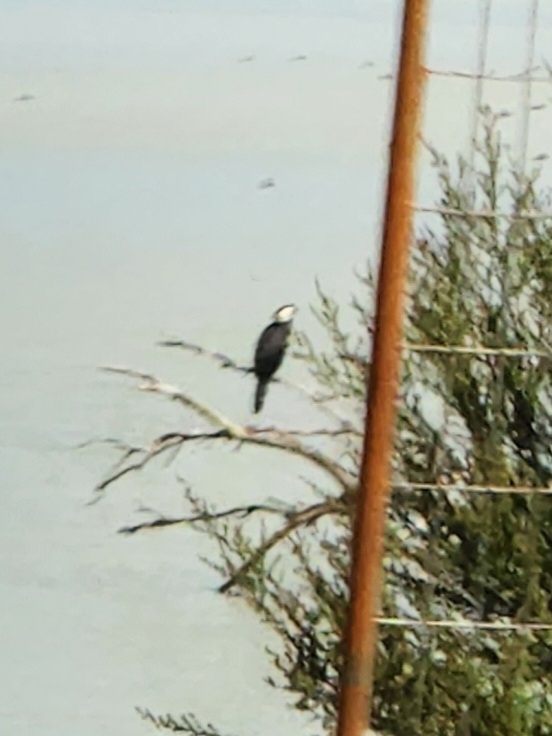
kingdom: Animalia
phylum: Chordata
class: Aves
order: Suliformes
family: Phalacrocoracidae
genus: Microcarbo
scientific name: Microcarbo melanoleucos
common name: Little pied cormorant
